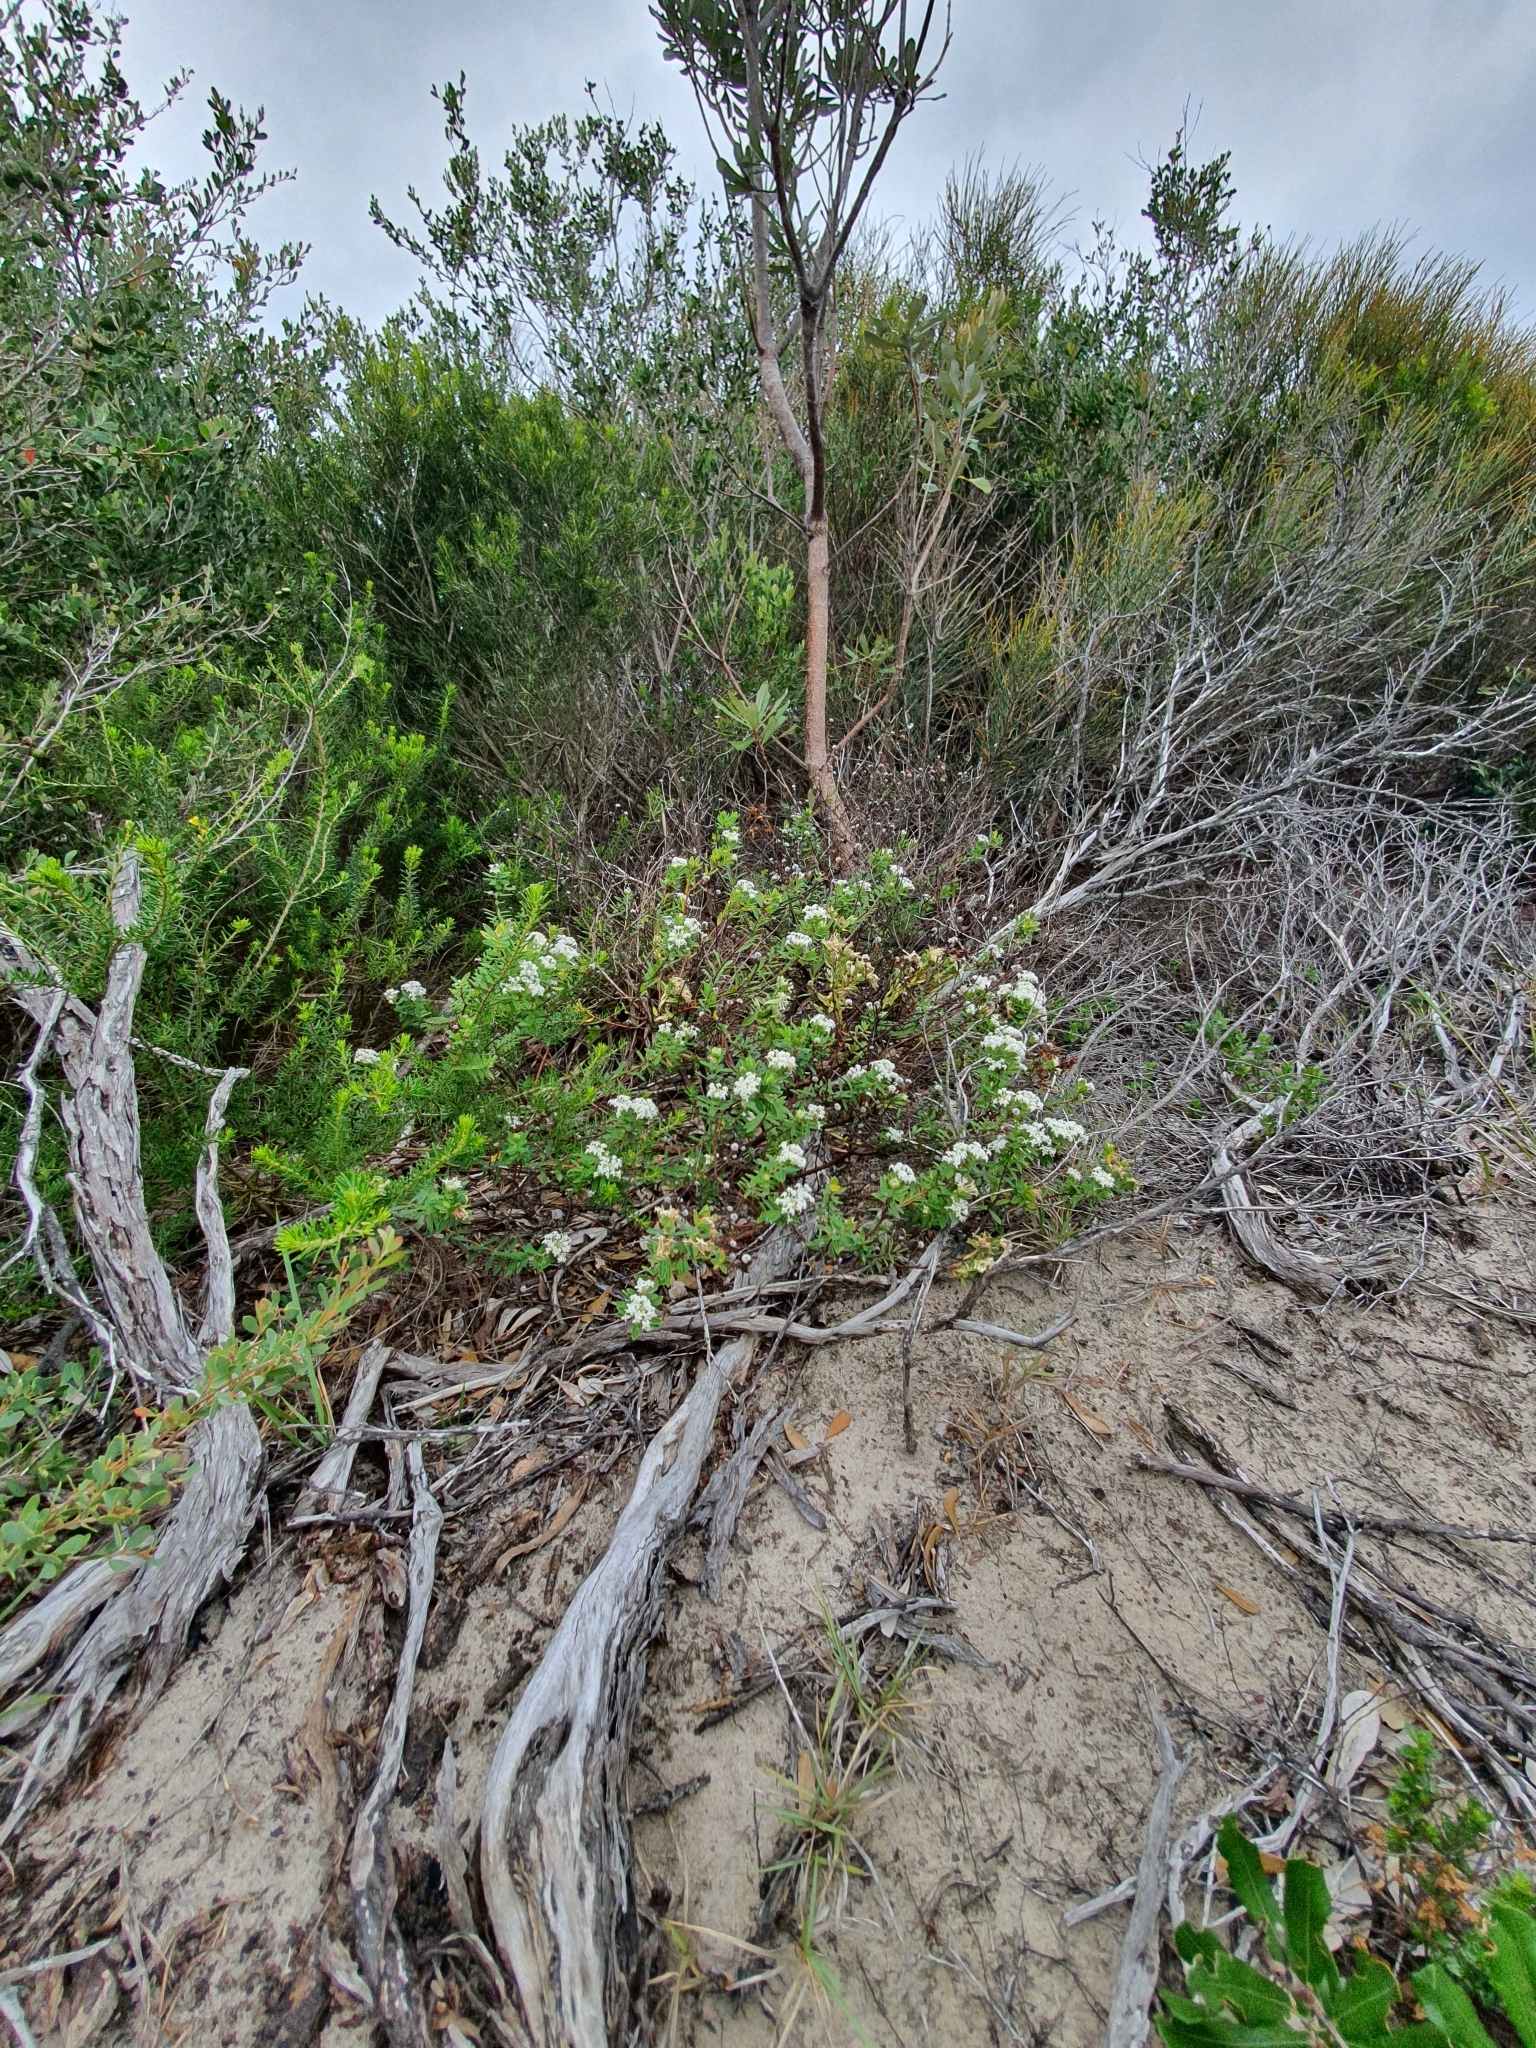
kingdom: Plantae
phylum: Tracheophyta
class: Magnoliopsida
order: Malvales
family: Thymelaeaceae
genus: Pimelea
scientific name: Pimelea linifolia
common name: Queen-of-the-bush
